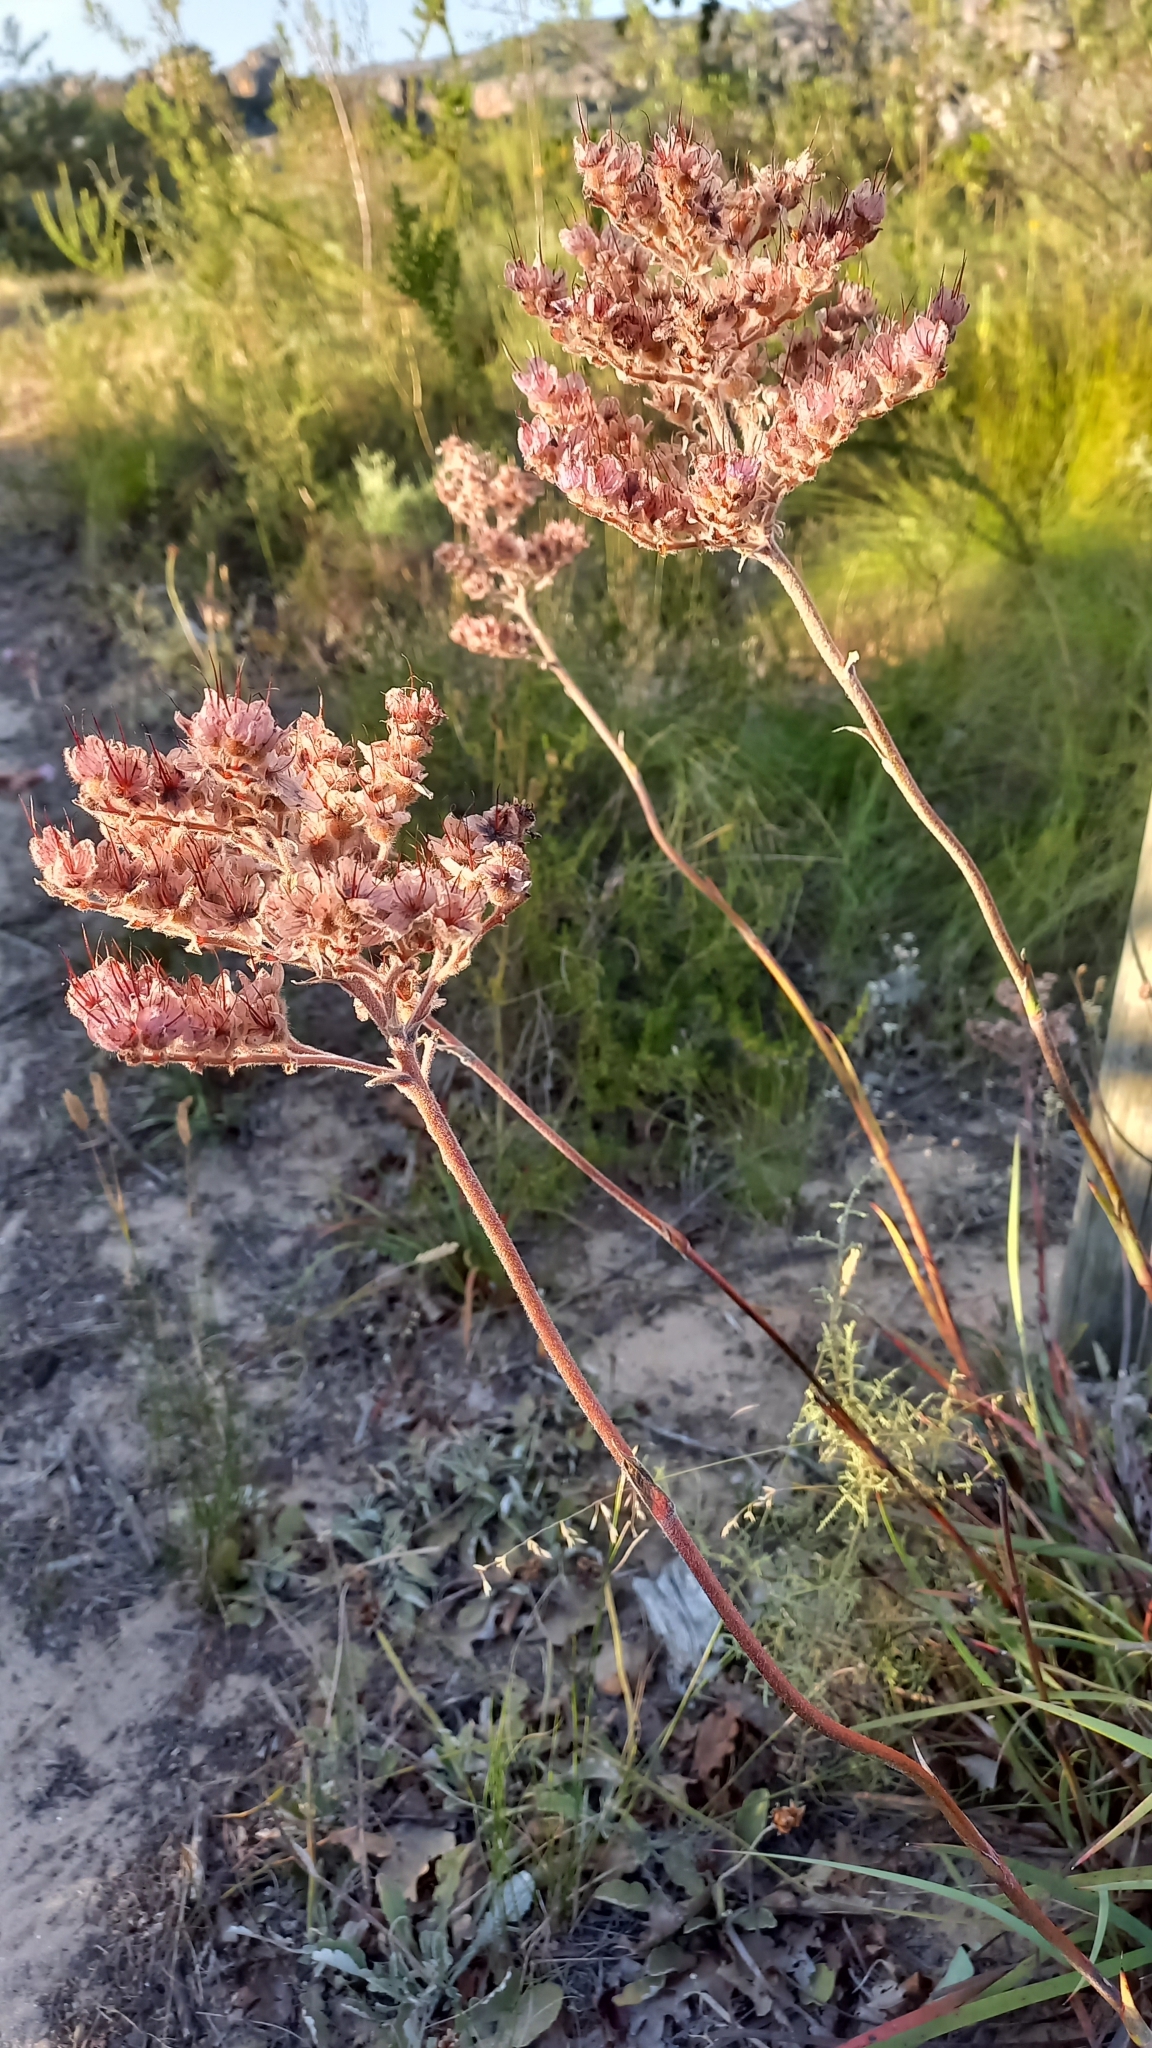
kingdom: Plantae
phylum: Tracheophyta
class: Liliopsida
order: Commelinales
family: Haemodoraceae
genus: Dilatris
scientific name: Dilatris ixioides
